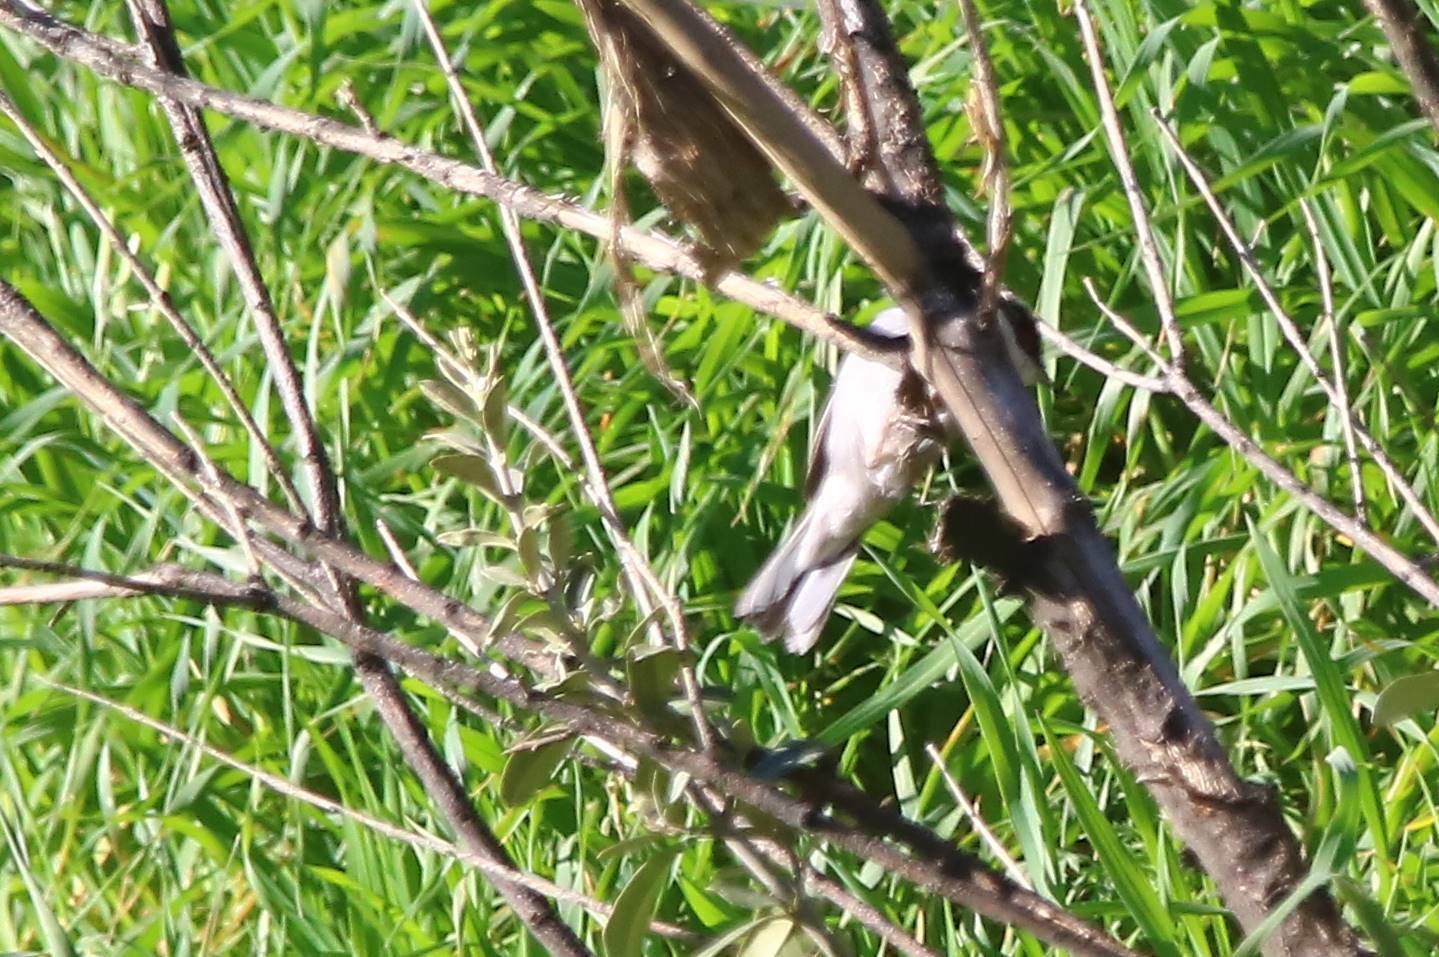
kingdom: Animalia
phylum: Chordata
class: Aves
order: Passeriformes
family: Sylviidae
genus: Curruca
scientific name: Curruca melanocephala
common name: Sardinian warbler
